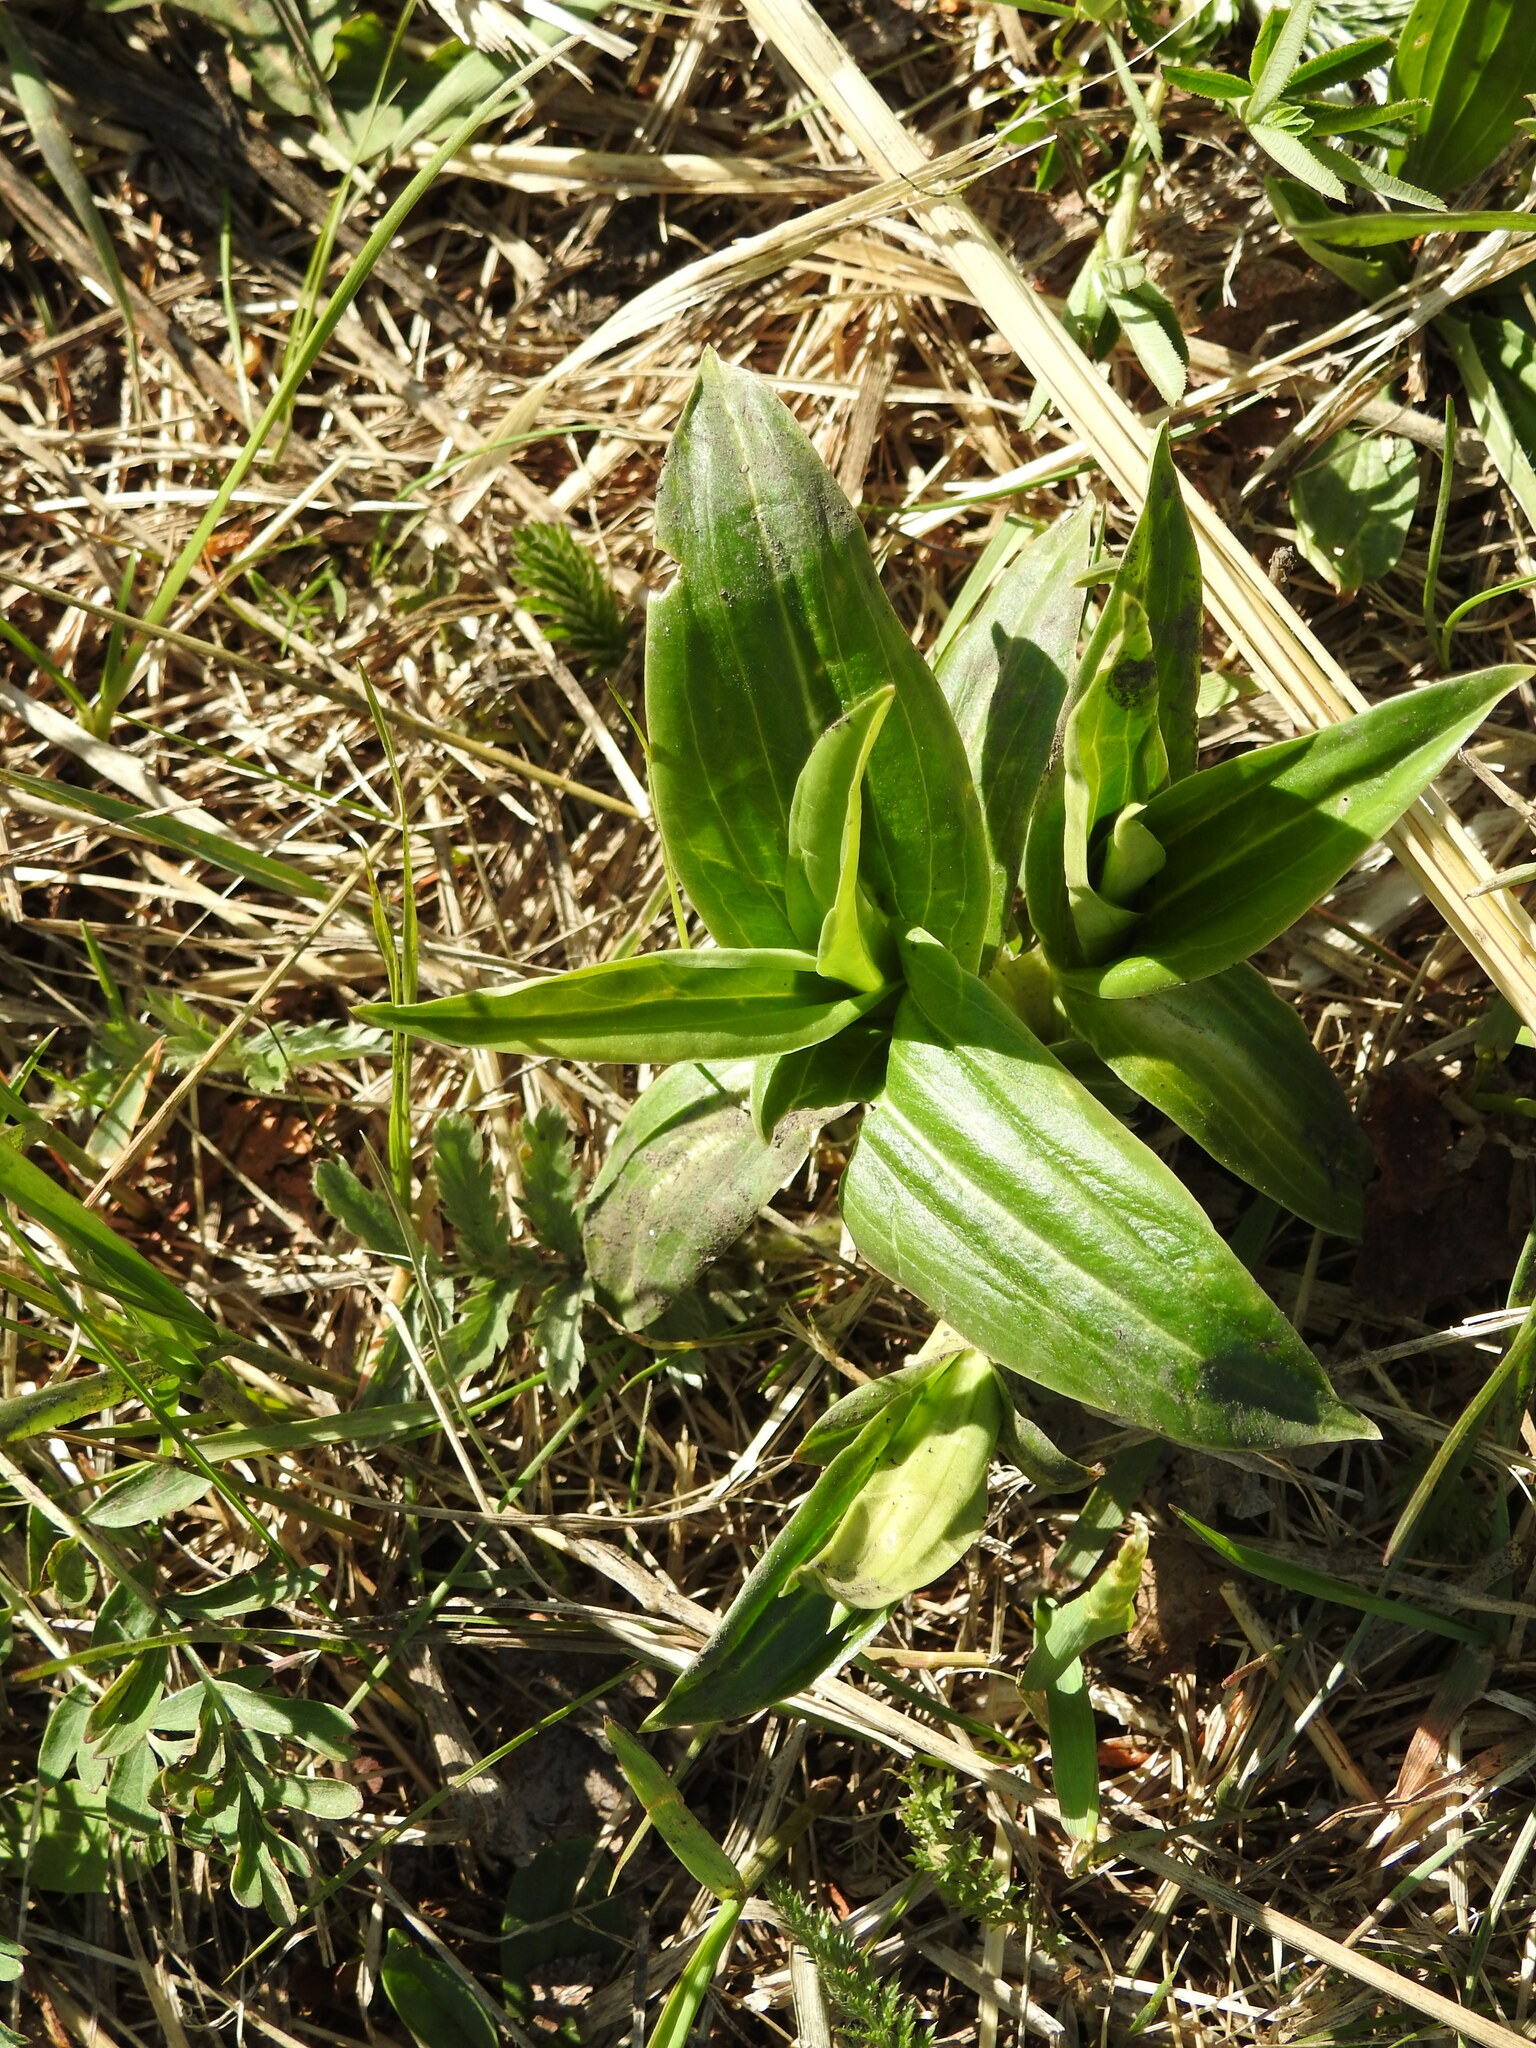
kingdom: Plantae
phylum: Tracheophyta
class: Magnoliopsida
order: Gentianales
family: Gentianaceae
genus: Gentiana
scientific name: Gentiana macrophylla
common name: Large-leaf gentian
